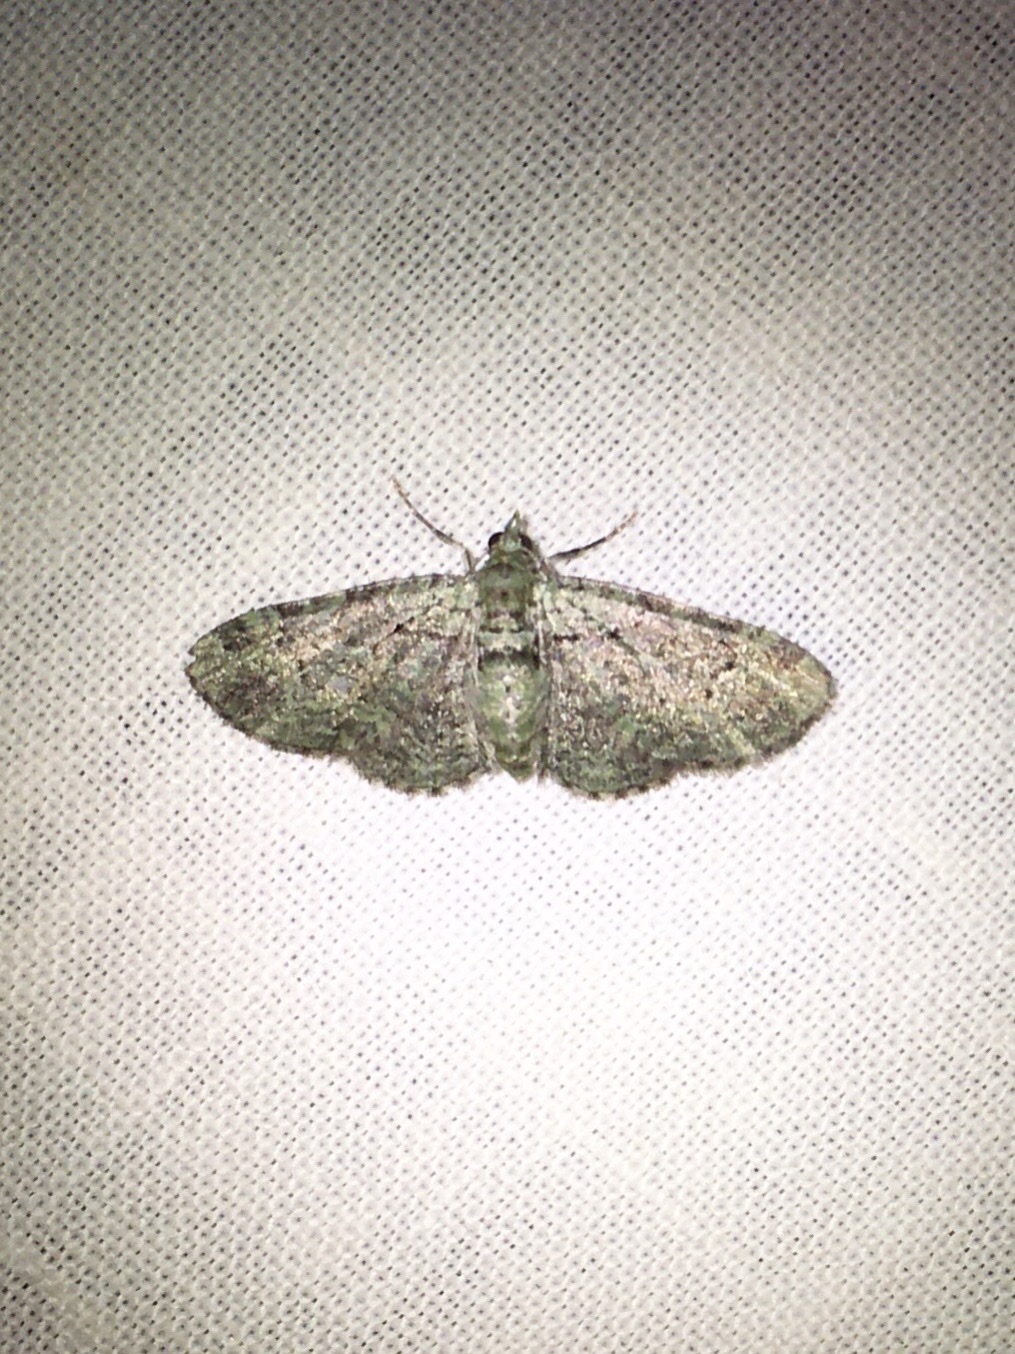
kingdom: Animalia
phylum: Arthropoda
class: Insecta
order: Lepidoptera
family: Geometridae
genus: Pasiphila
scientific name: Pasiphila rectangulata
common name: Green pug
